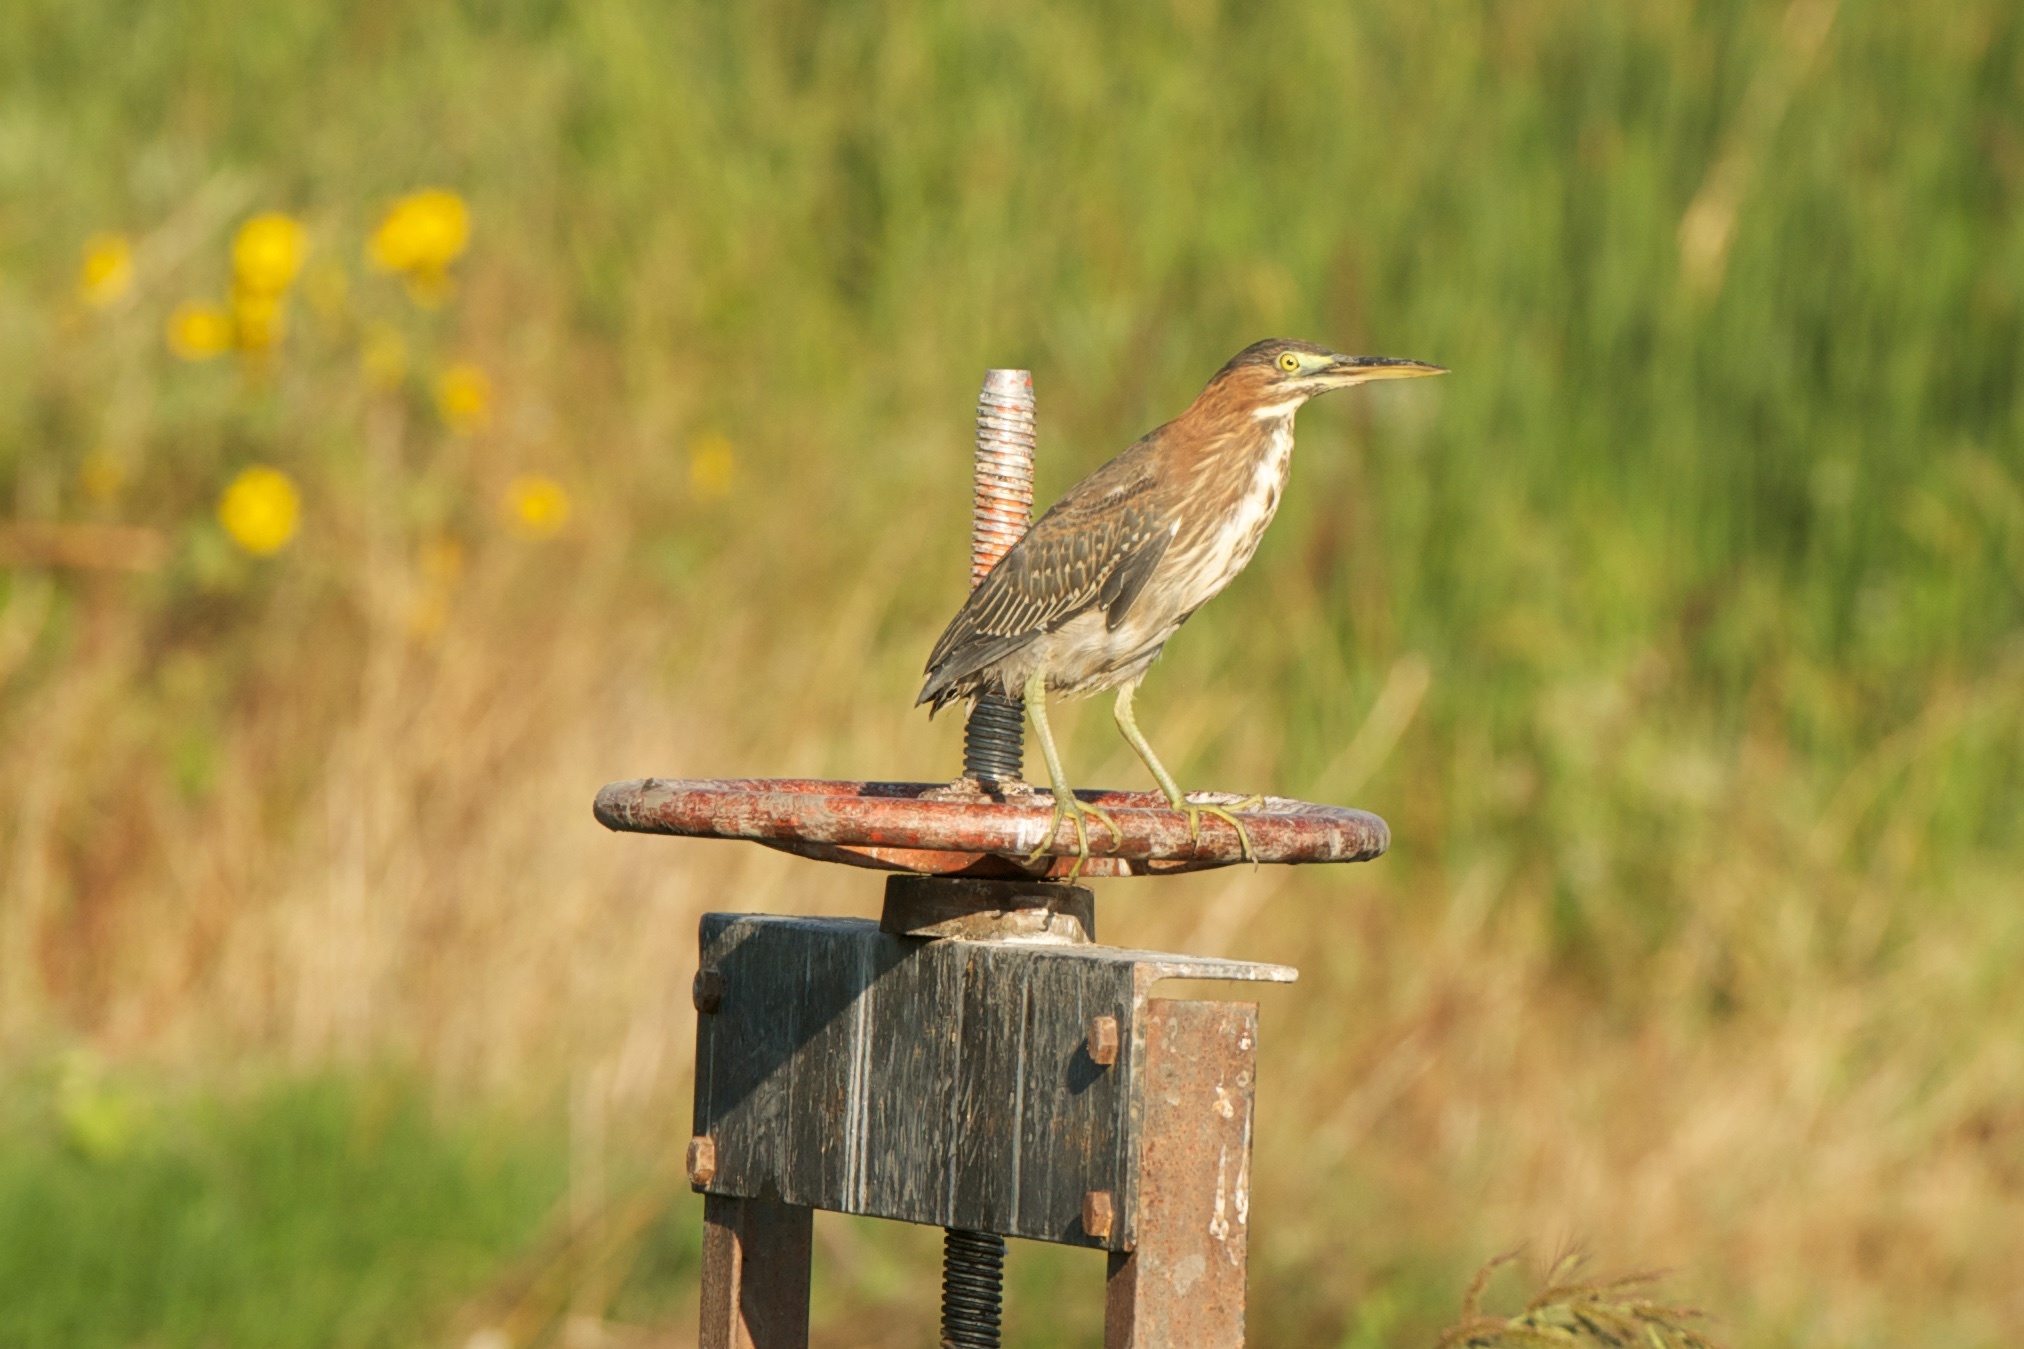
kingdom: Animalia
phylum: Chordata
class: Aves
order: Pelecaniformes
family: Ardeidae
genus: Butorides
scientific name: Butorides virescens
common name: Green heron
